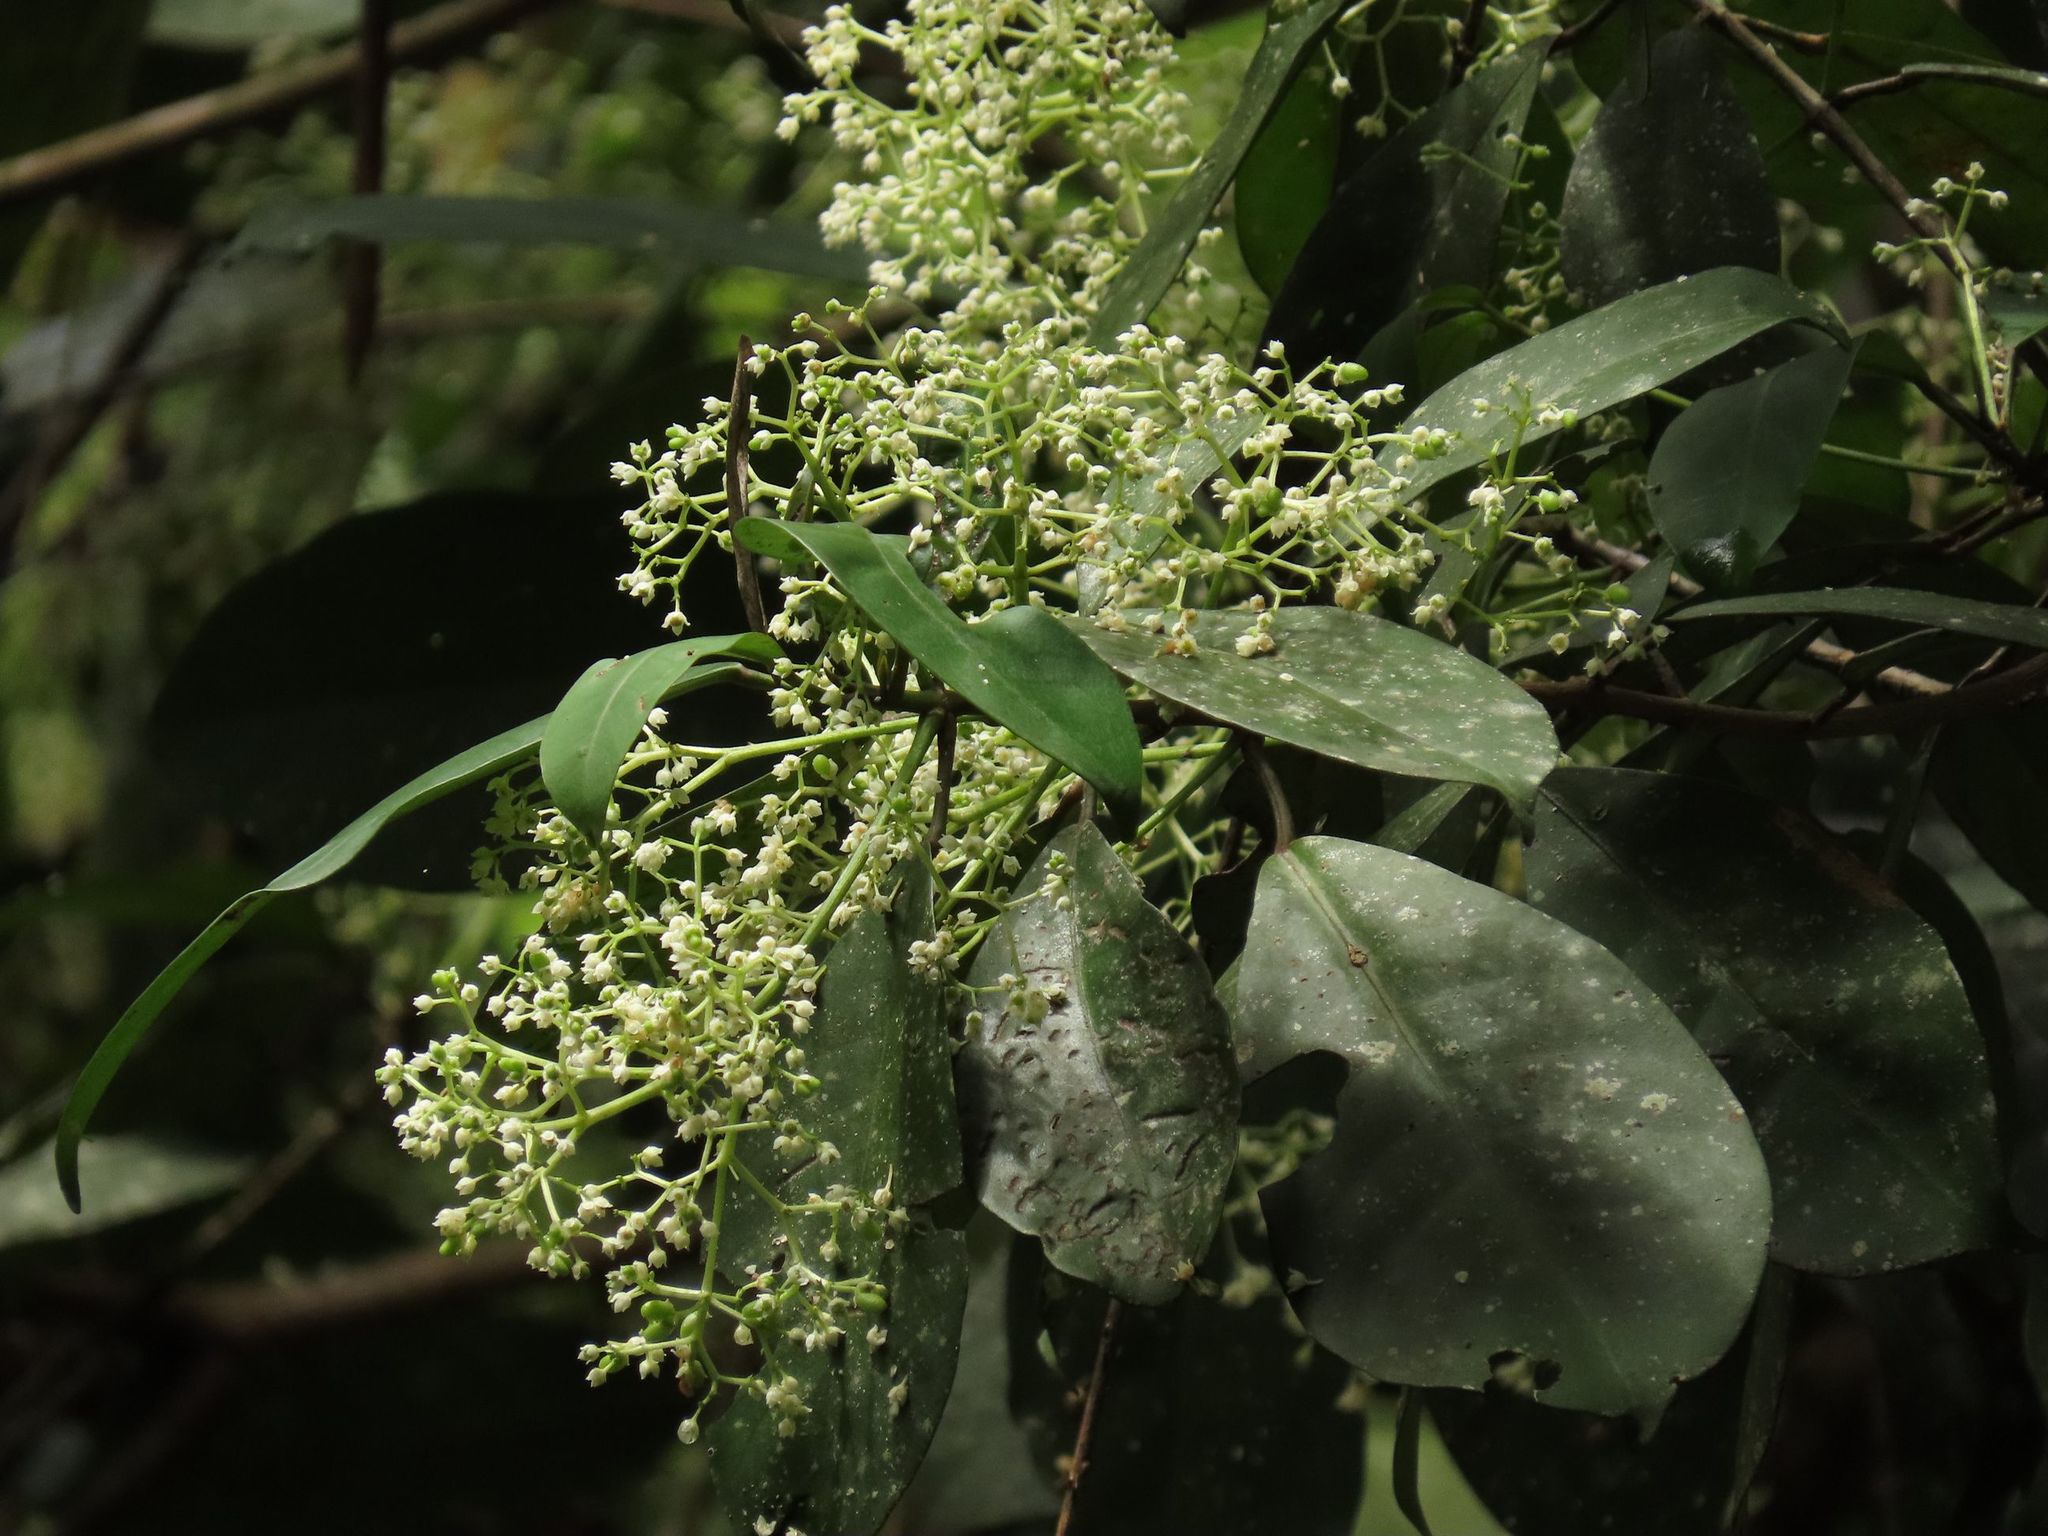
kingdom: Plantae
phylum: Tracheophyta
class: Magnoliopsida
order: Sapindales
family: Rutaceae
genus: Brombya
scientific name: Brombya platynema
